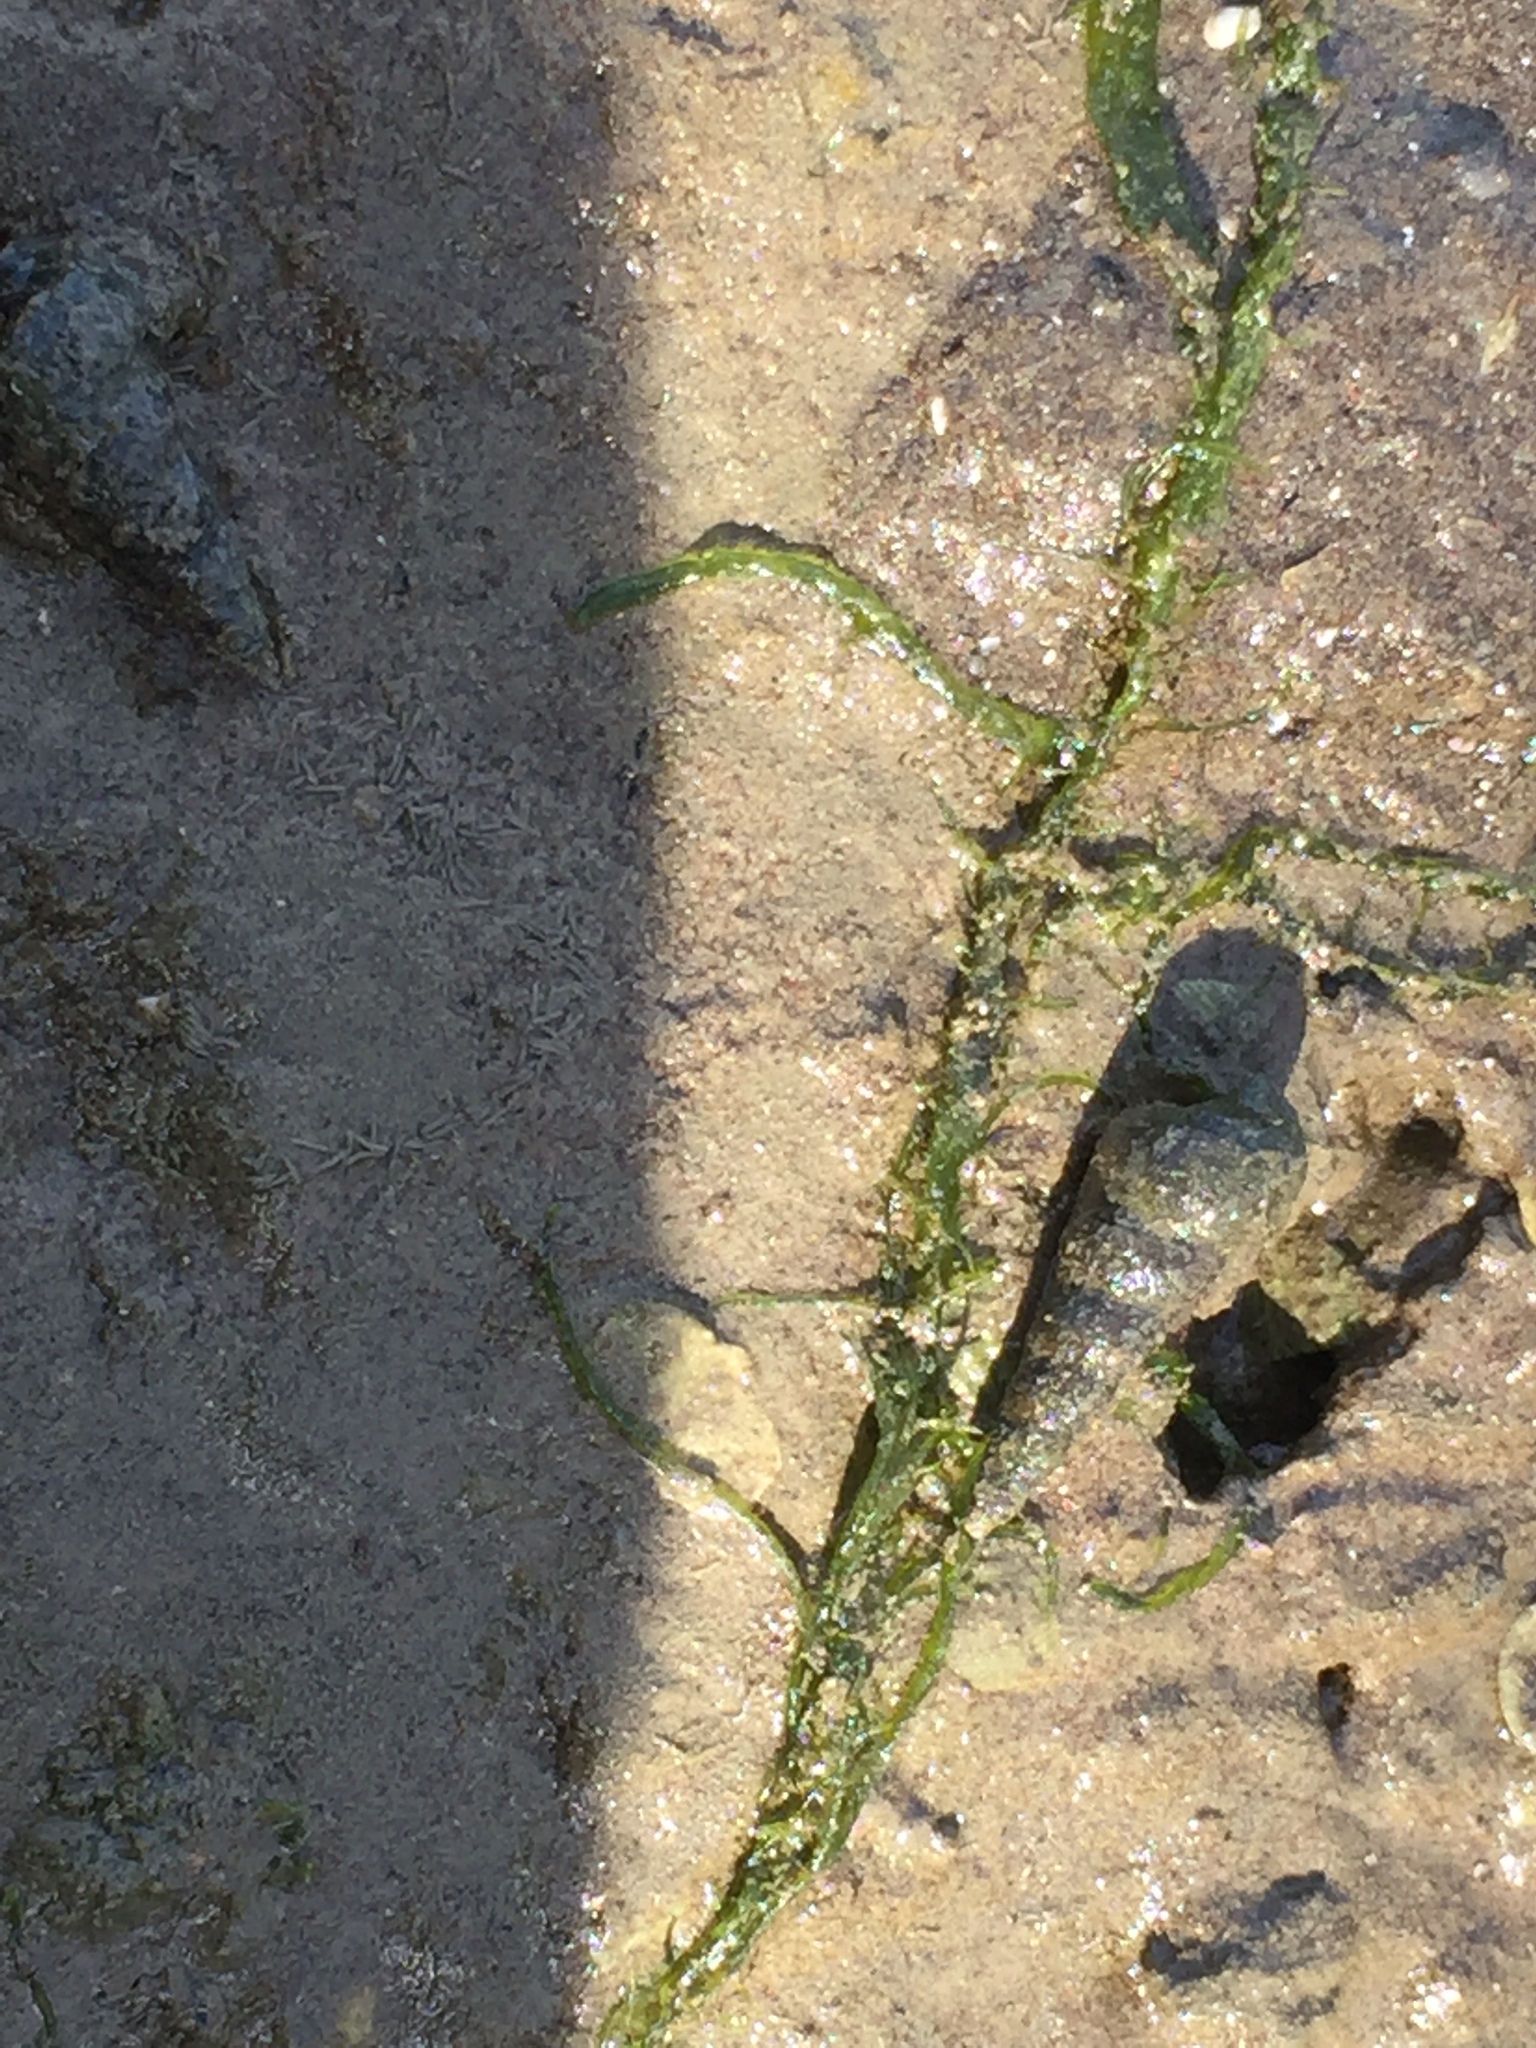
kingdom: Animalia
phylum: Mollusca
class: Gastropoda
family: Batillariidae
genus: Zeacumantus
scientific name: Zeacumantus lutulentus
